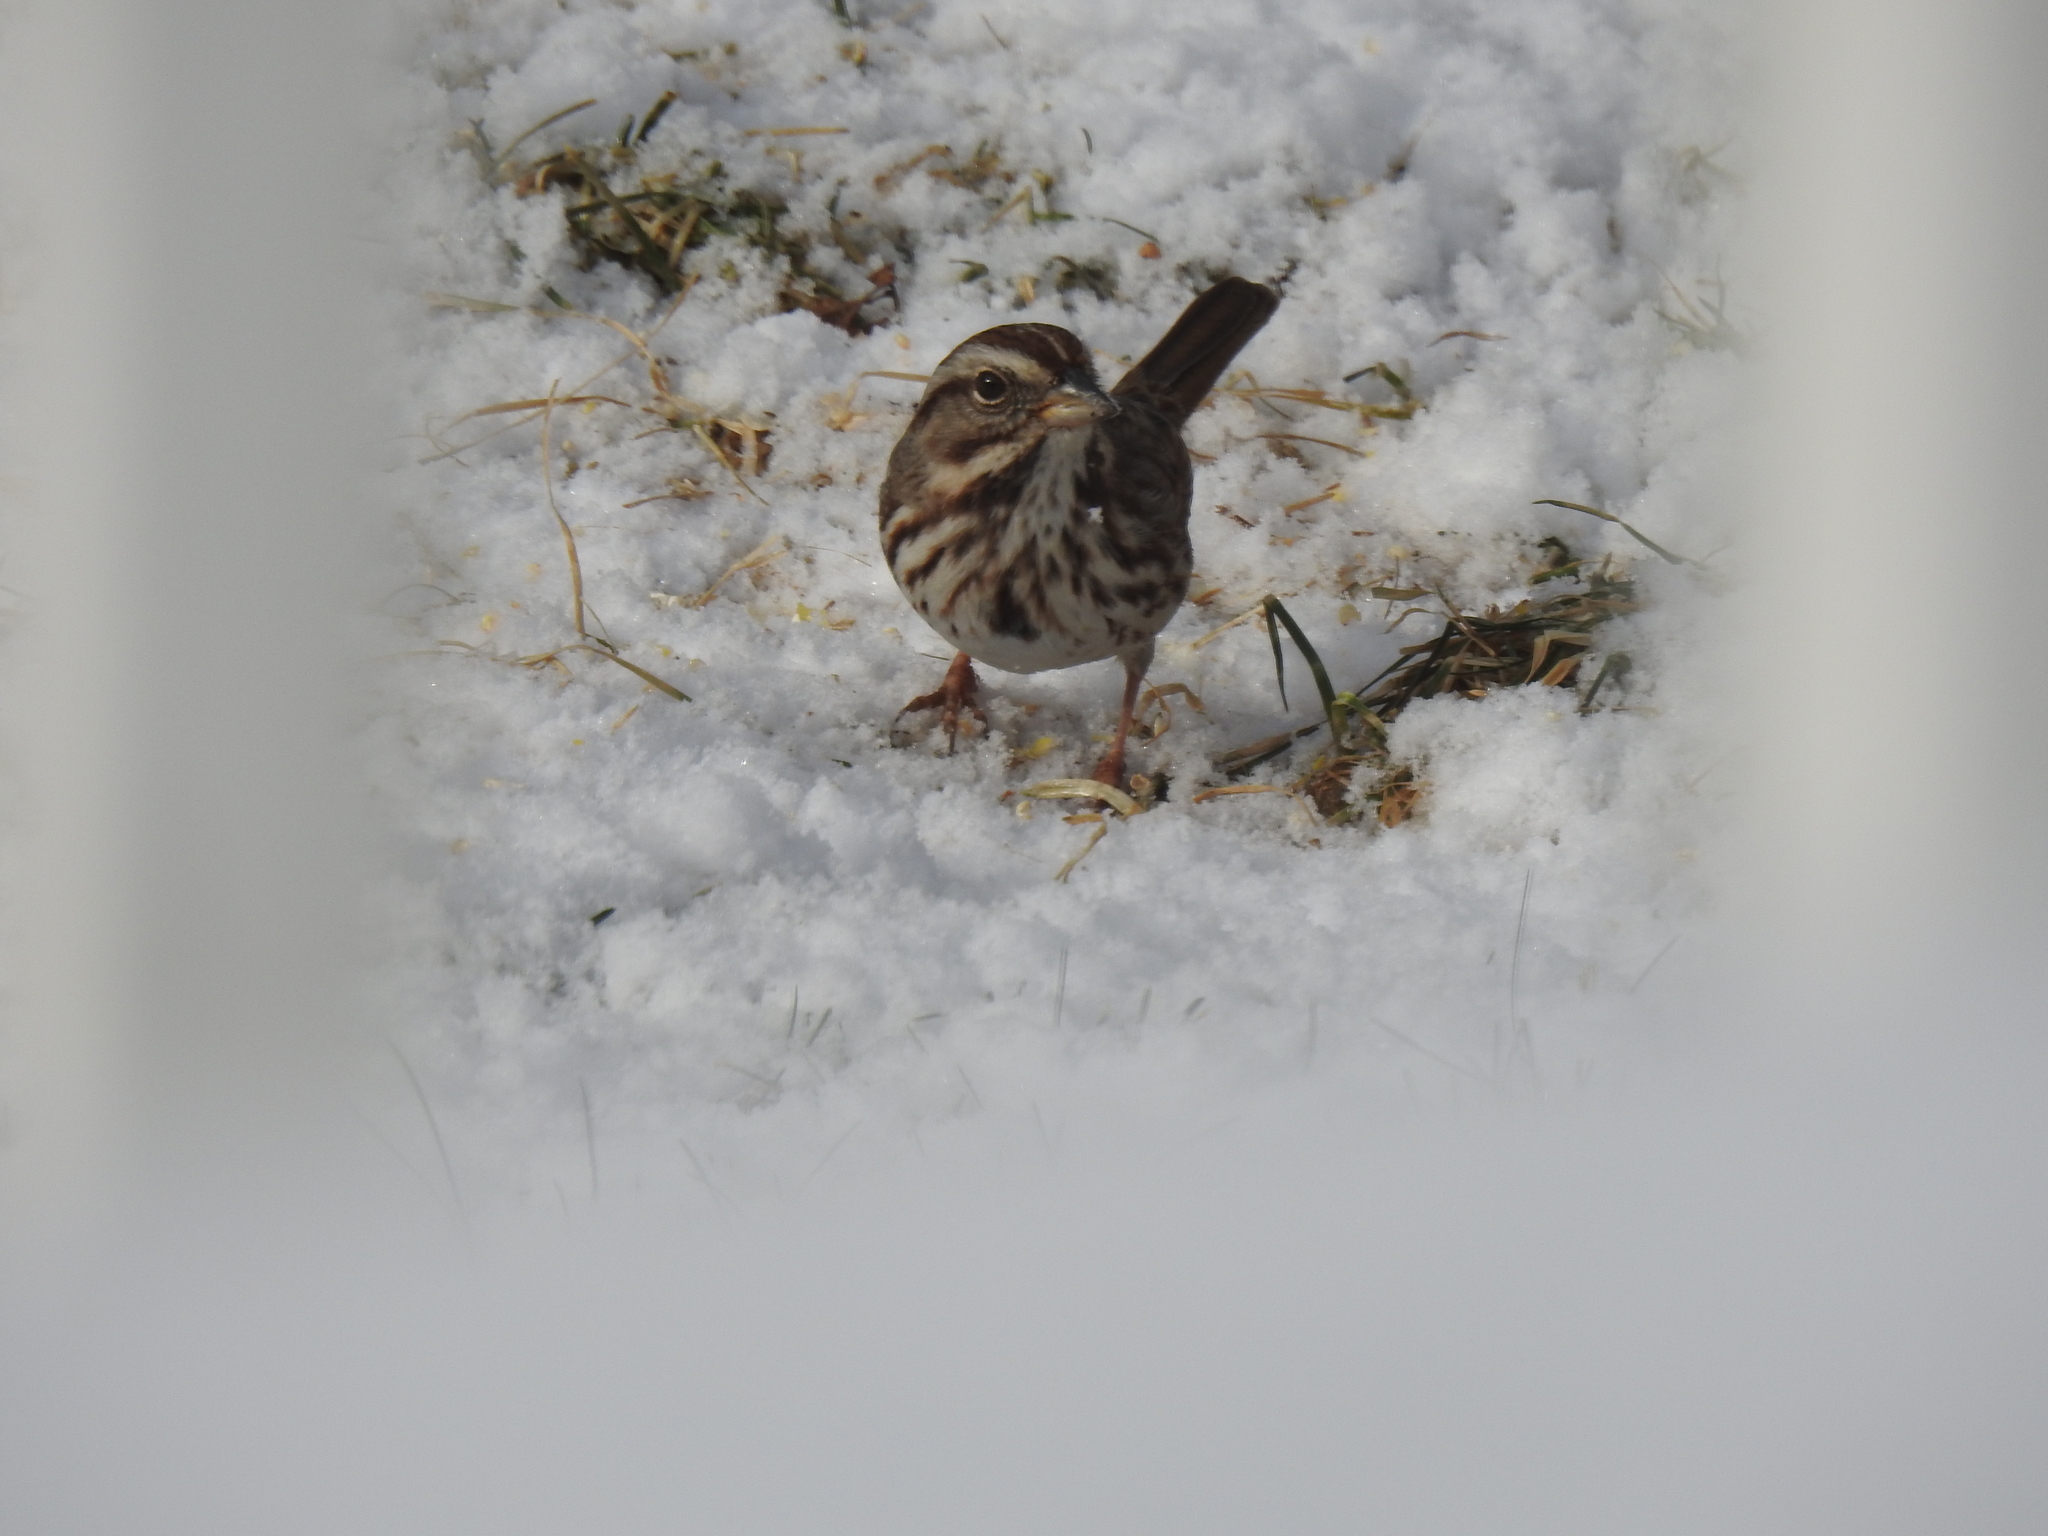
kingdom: Animalia
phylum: Chordata
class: Aves
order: Passeriformes
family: Passerellidae
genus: Melospiza
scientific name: Melospiza melodia
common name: Song sparrow
